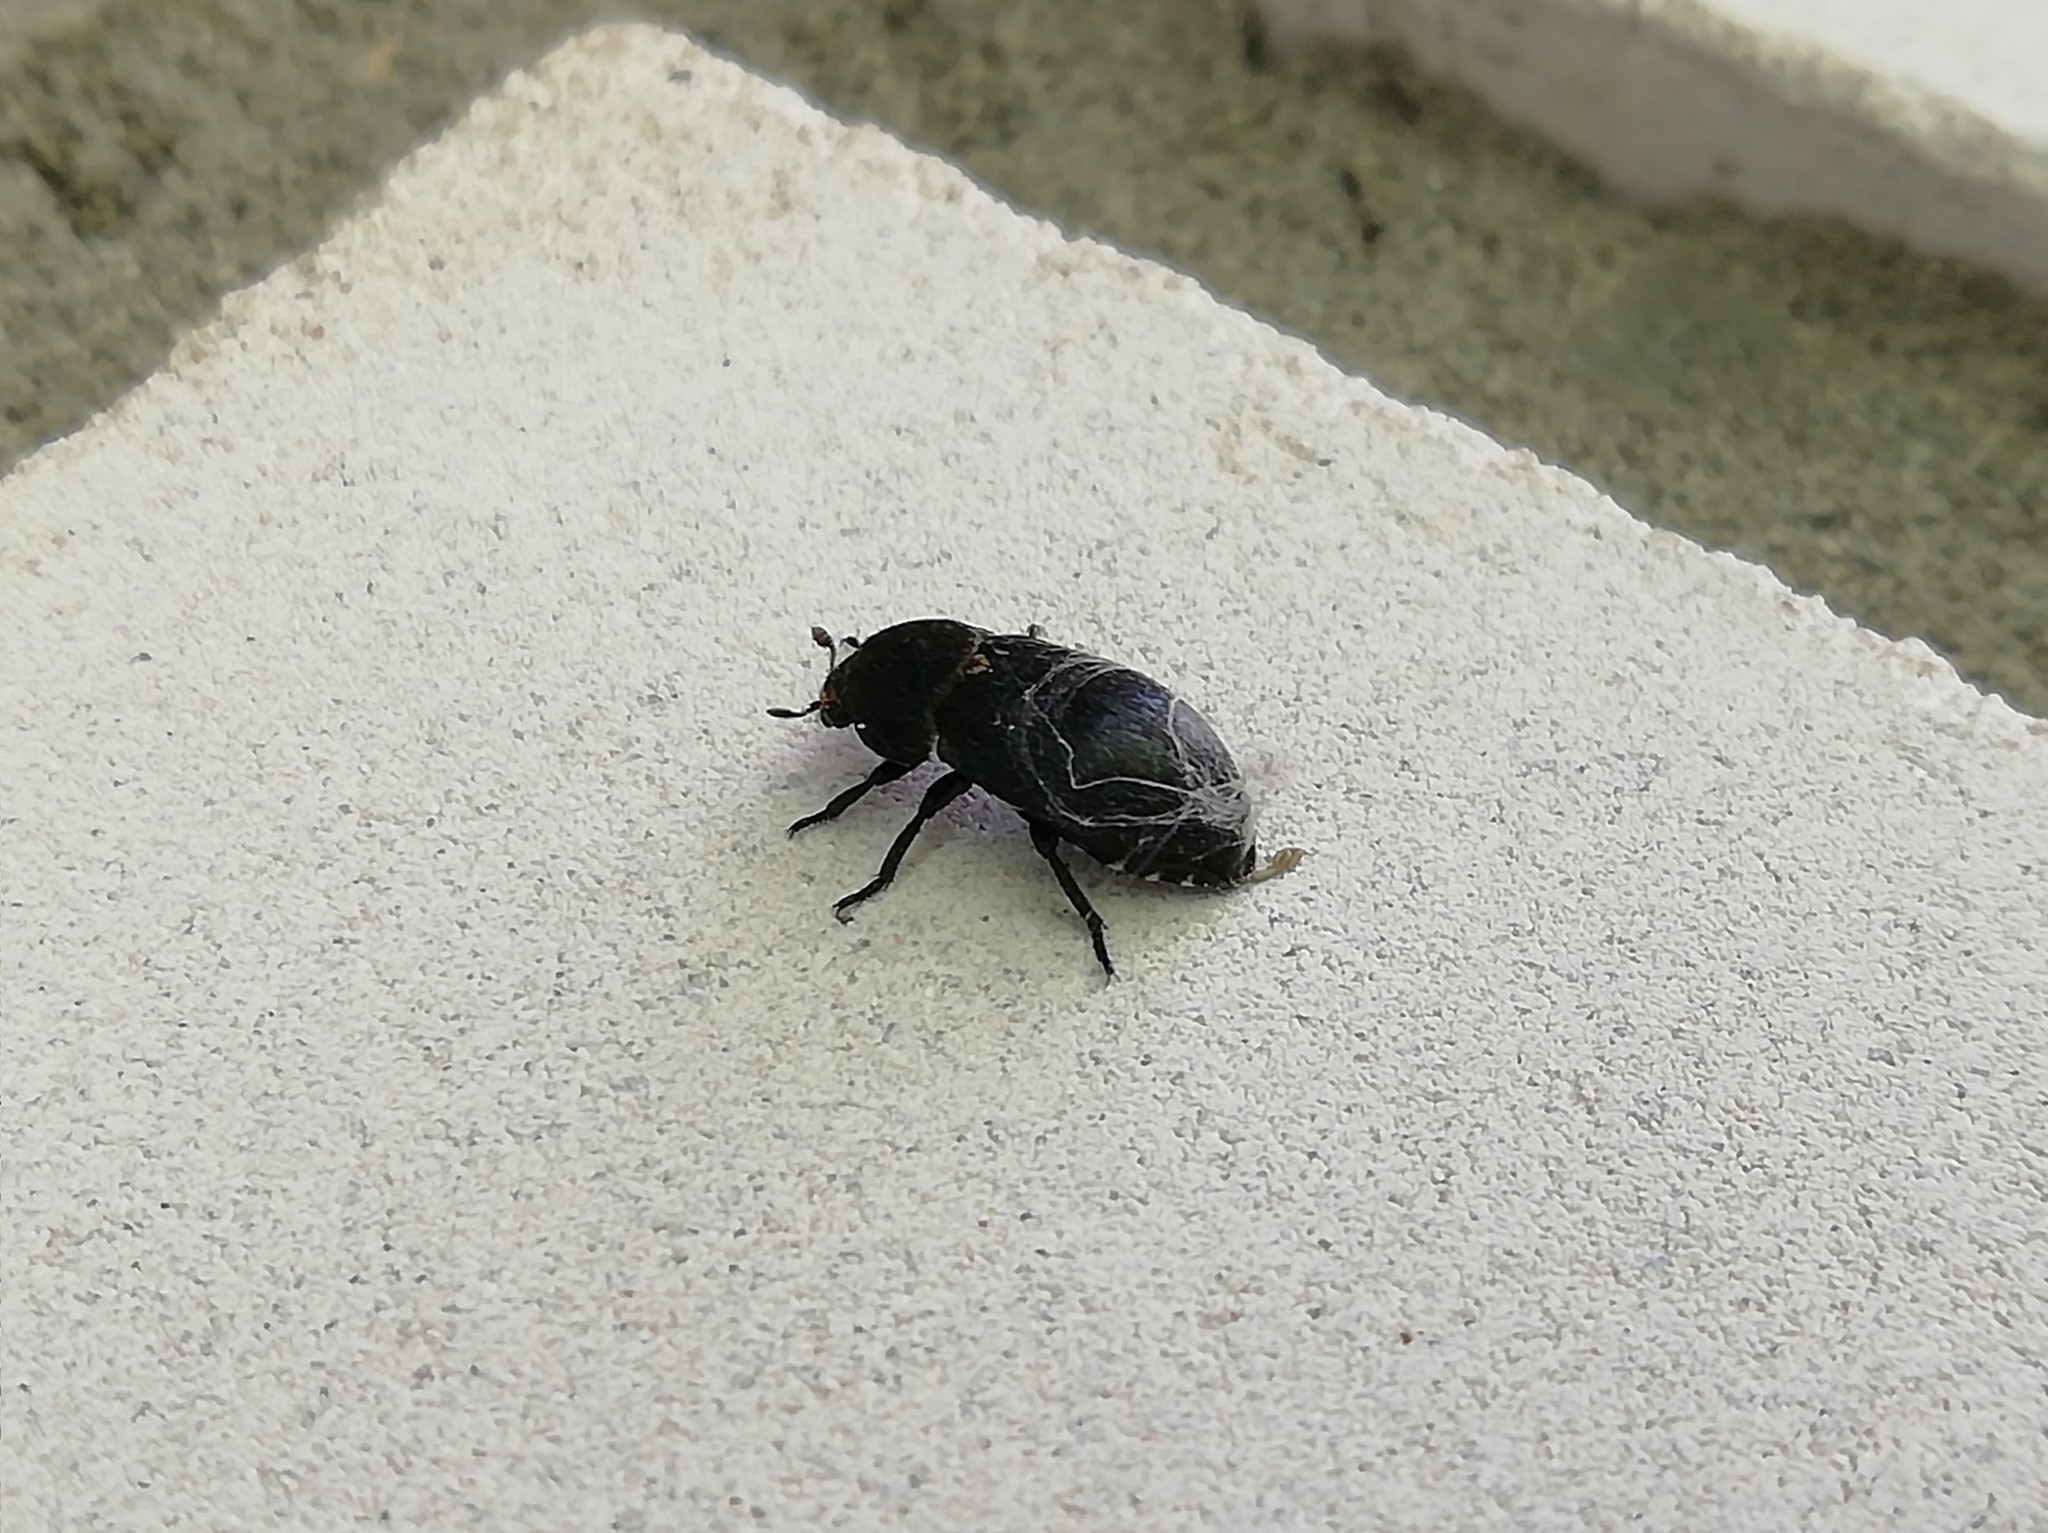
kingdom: Animalia
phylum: Arthropoda
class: Insecta
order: Coleoptera
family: Dermestidae
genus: Dermestes
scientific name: Dermestes laniarius
